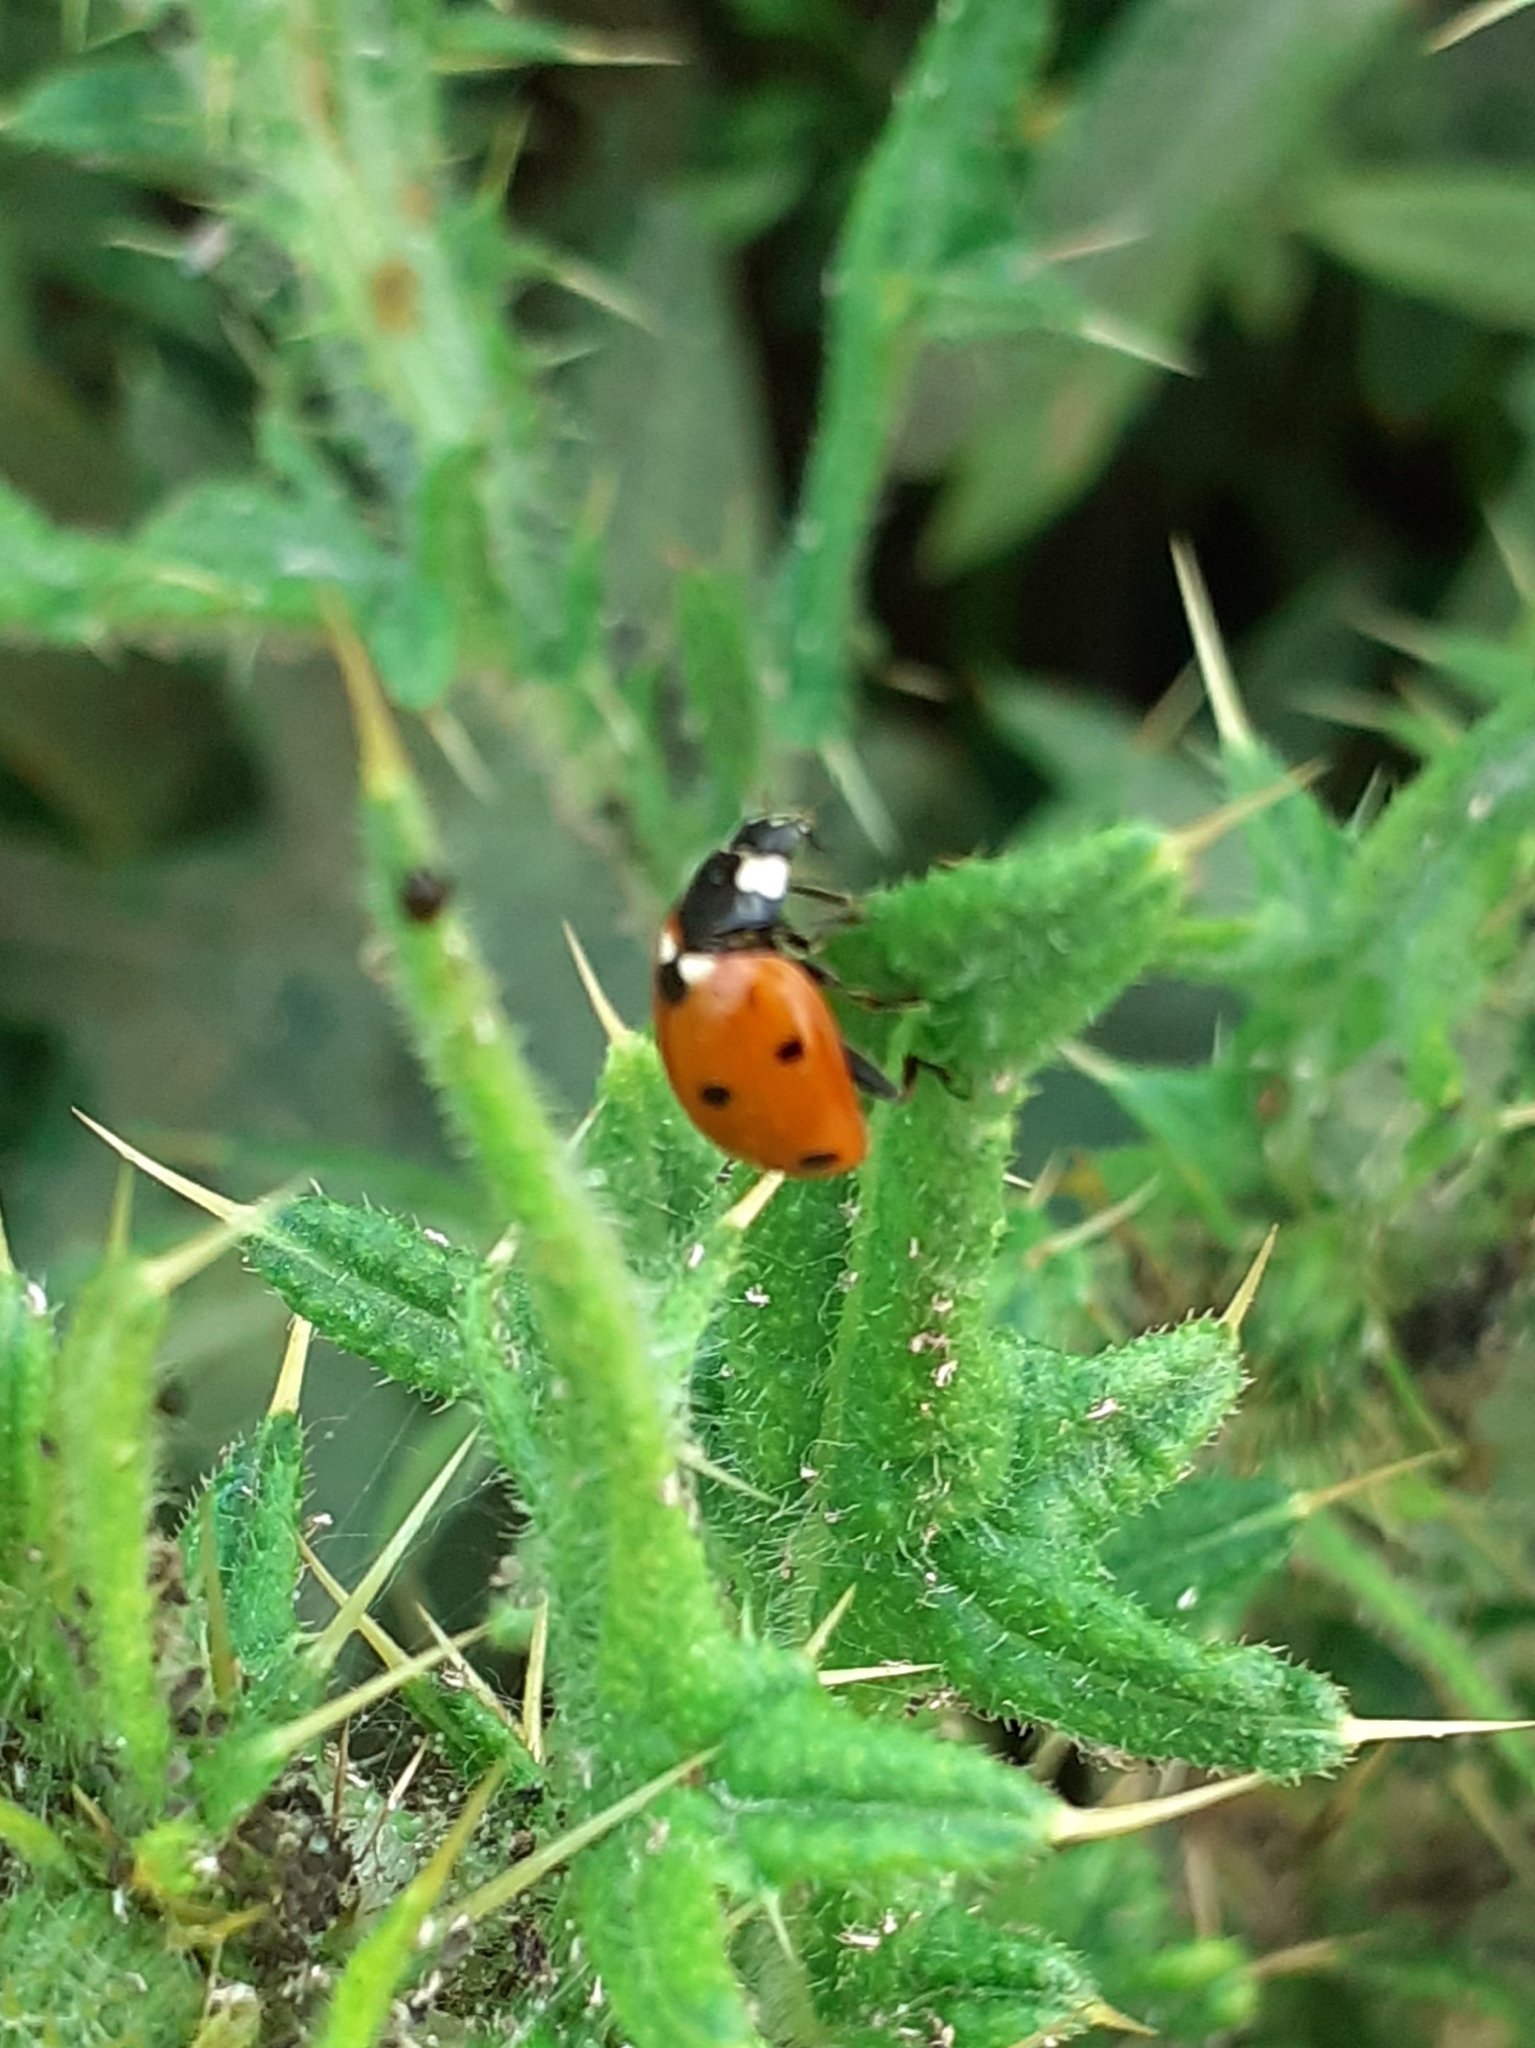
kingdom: Animalia
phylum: Arthropoda
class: Insecta
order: Coleoptera
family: Coccinellidae
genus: Coccinella
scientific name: Coccinella septempunctata
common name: Sevenspotted lady beetle
